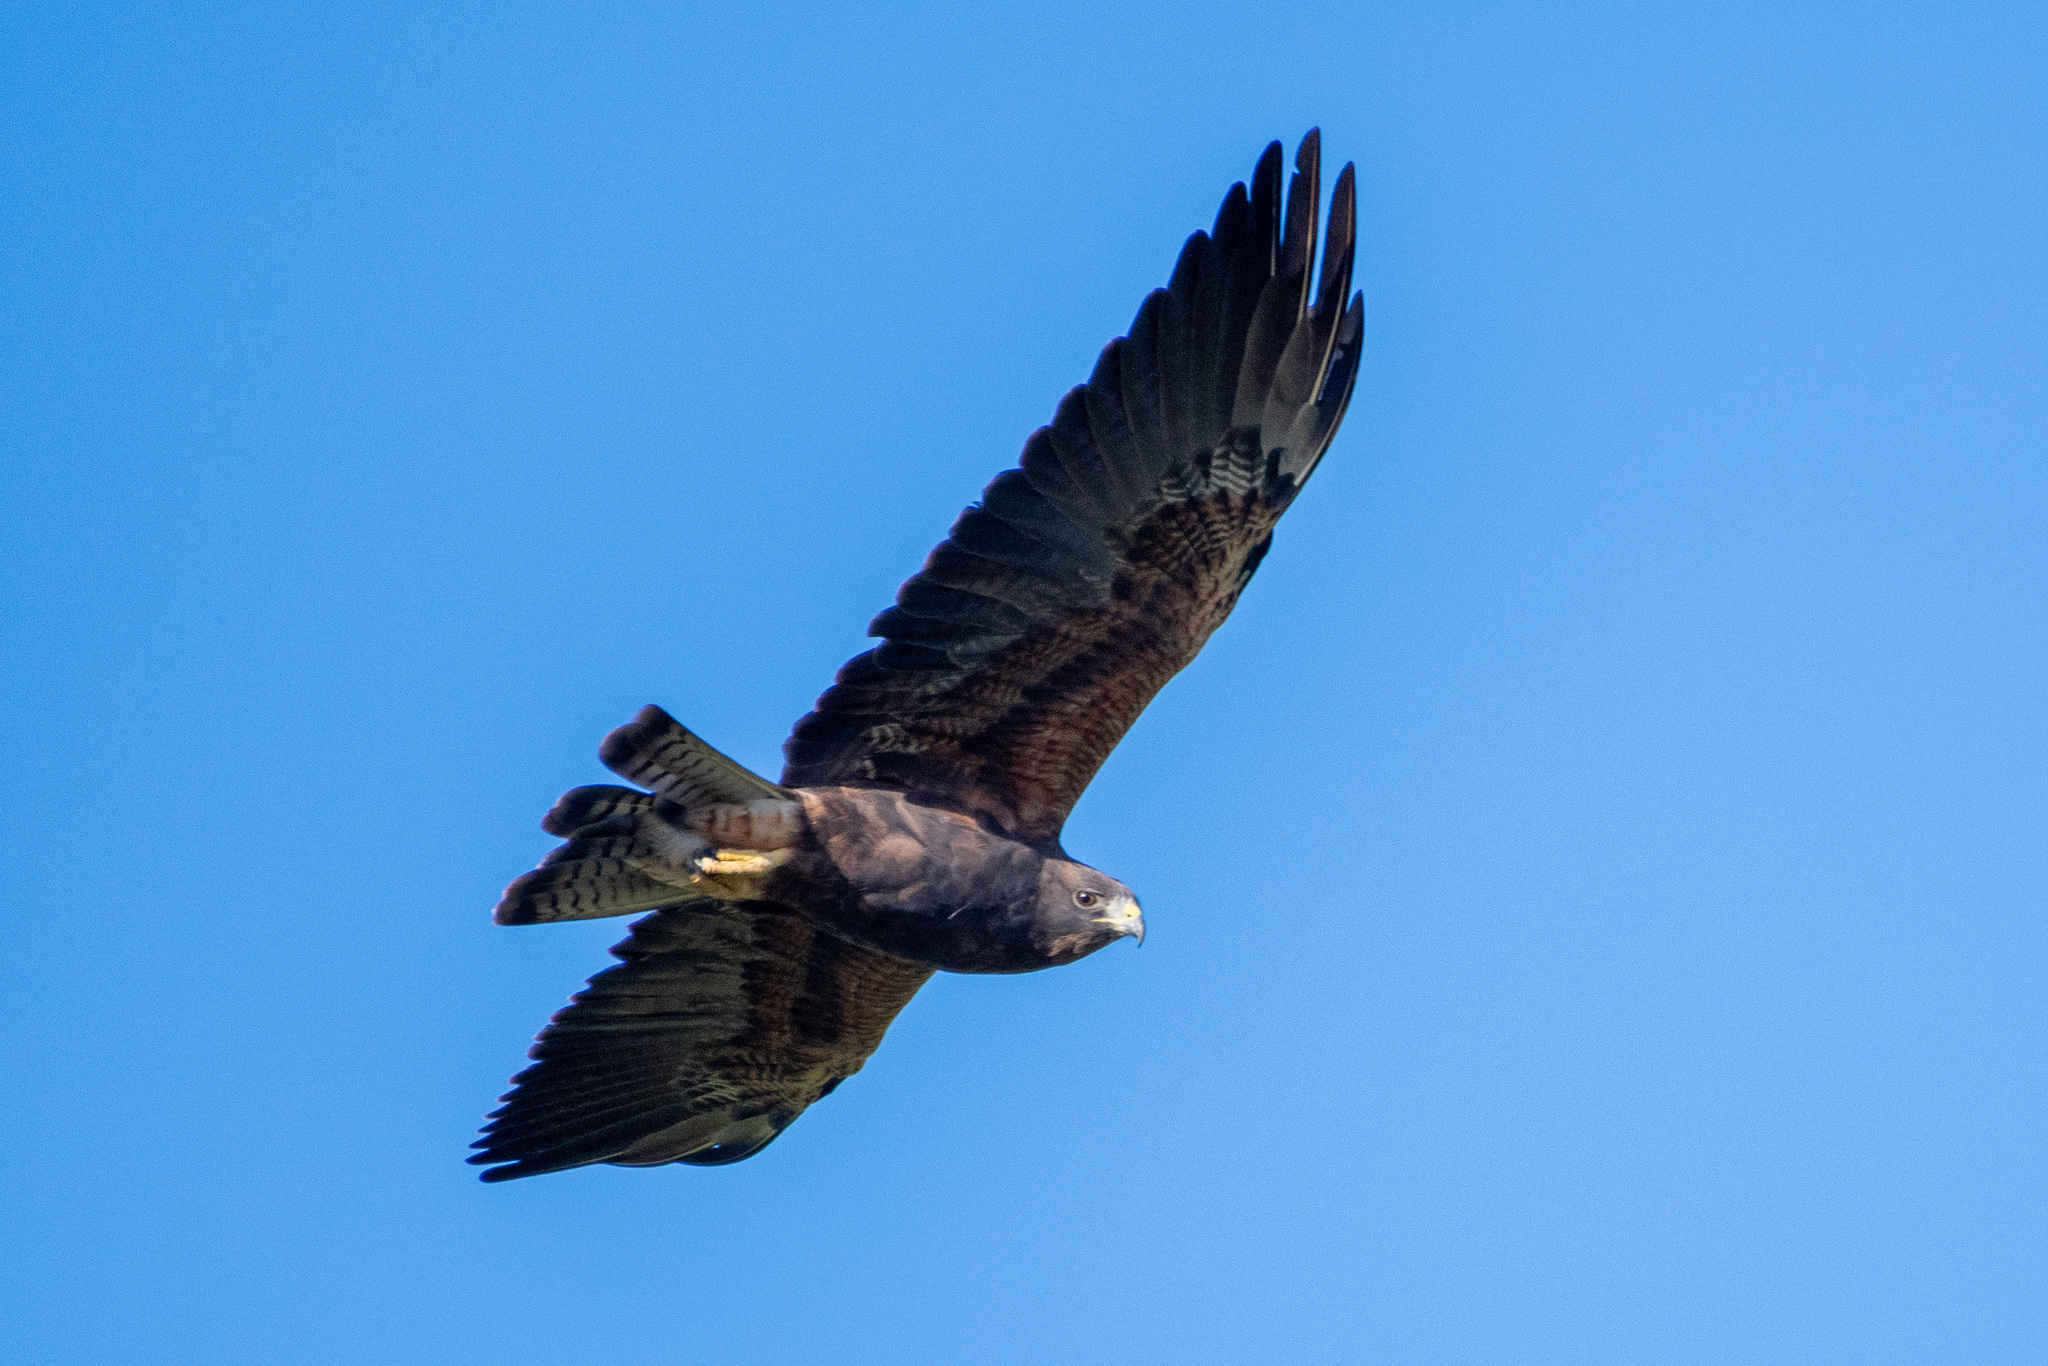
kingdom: Animalia
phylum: Chordata
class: Aves
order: Accipitriformes
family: Accipitridae
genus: Buteo
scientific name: Buteo swainsoni
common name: Swainson's hawk
